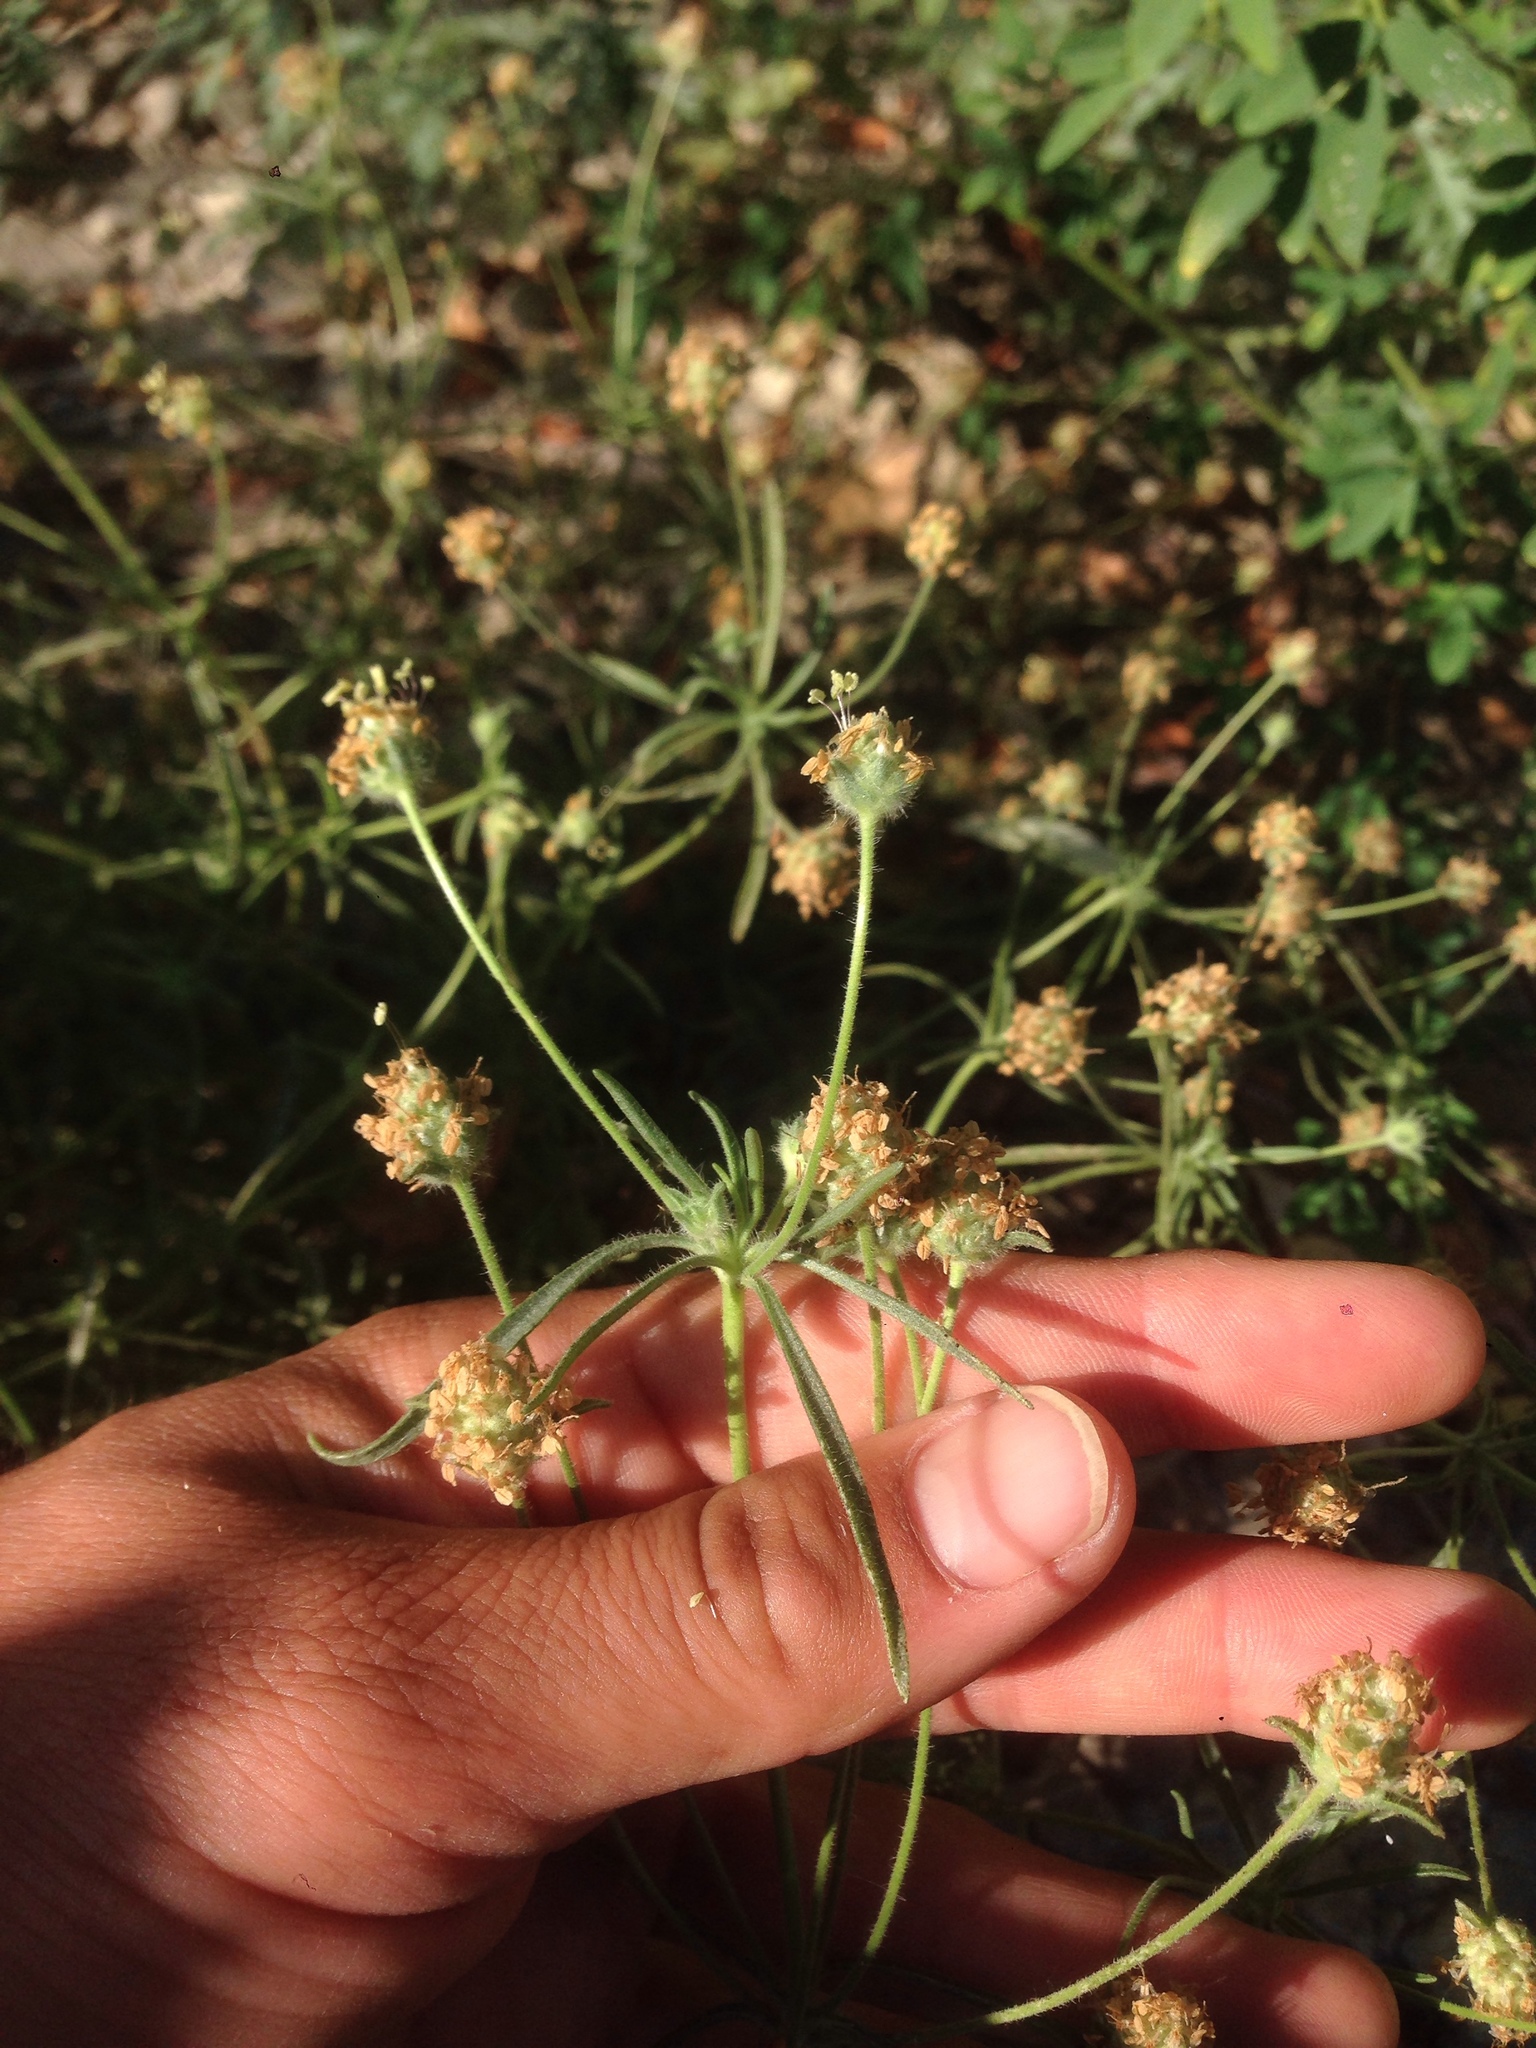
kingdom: Plantae
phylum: Tracheophyta
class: Magnoliopsida
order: Lamiales
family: Plantaginaceae
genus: Plantago
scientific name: Plantago arenaria
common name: Branched plantain
